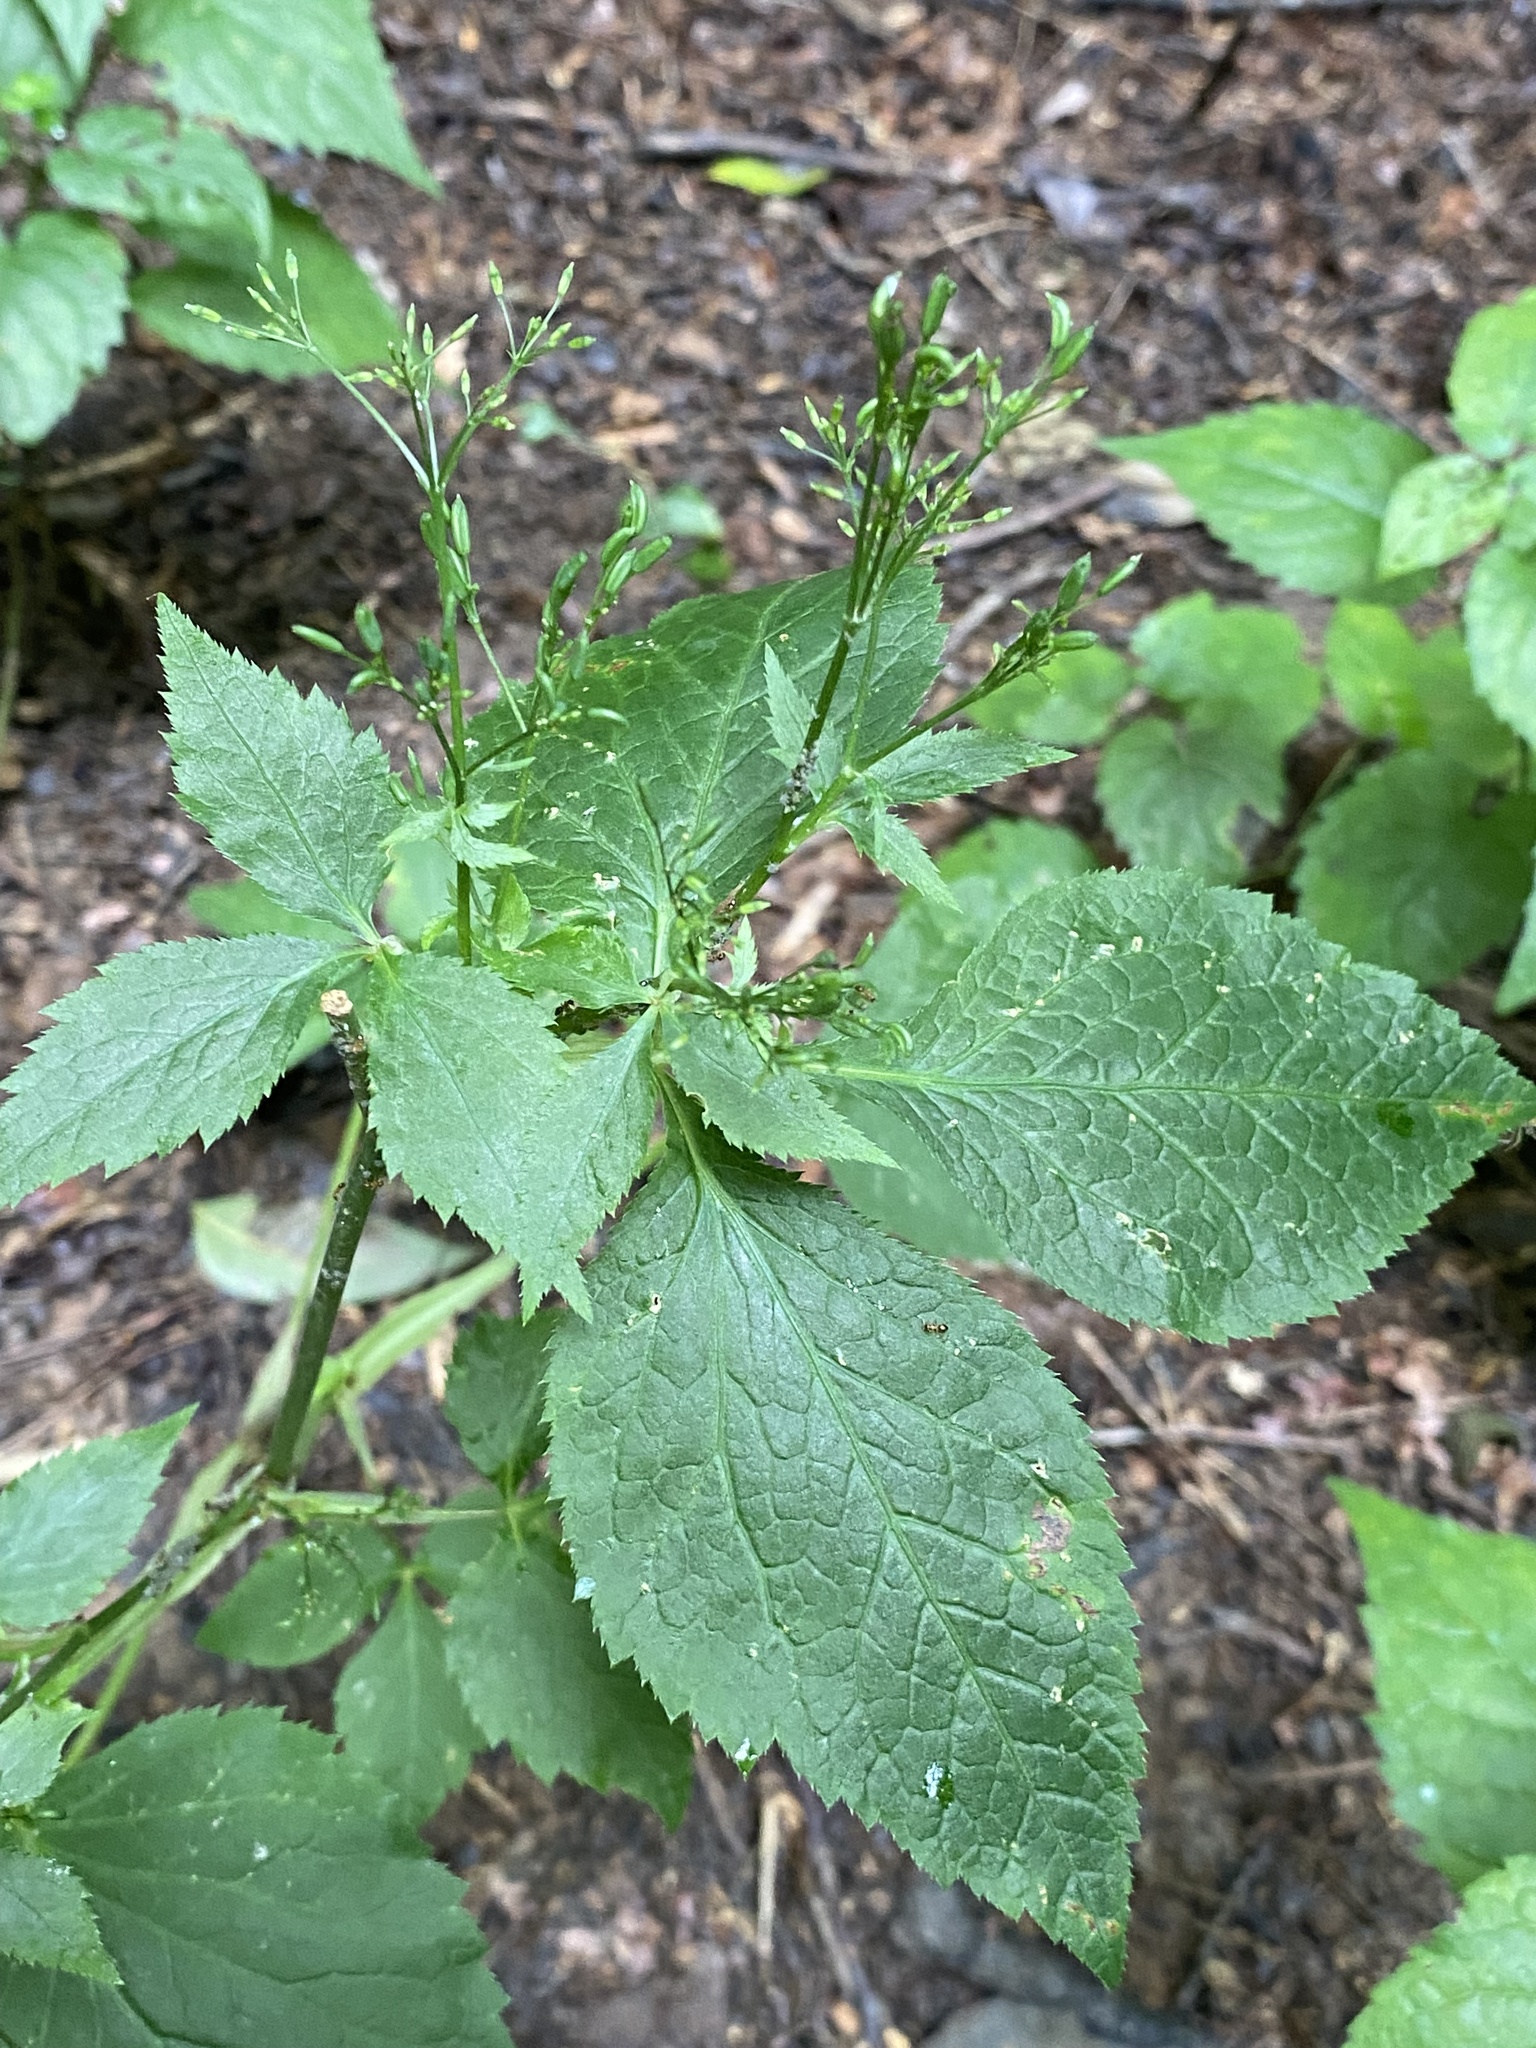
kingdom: Plantae
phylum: Tracheophyta
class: Magnoliopsida
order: Apiales
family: Apiaceae
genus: Cryptotaenia
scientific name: Cryptotaenia canadensis
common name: Honewort
